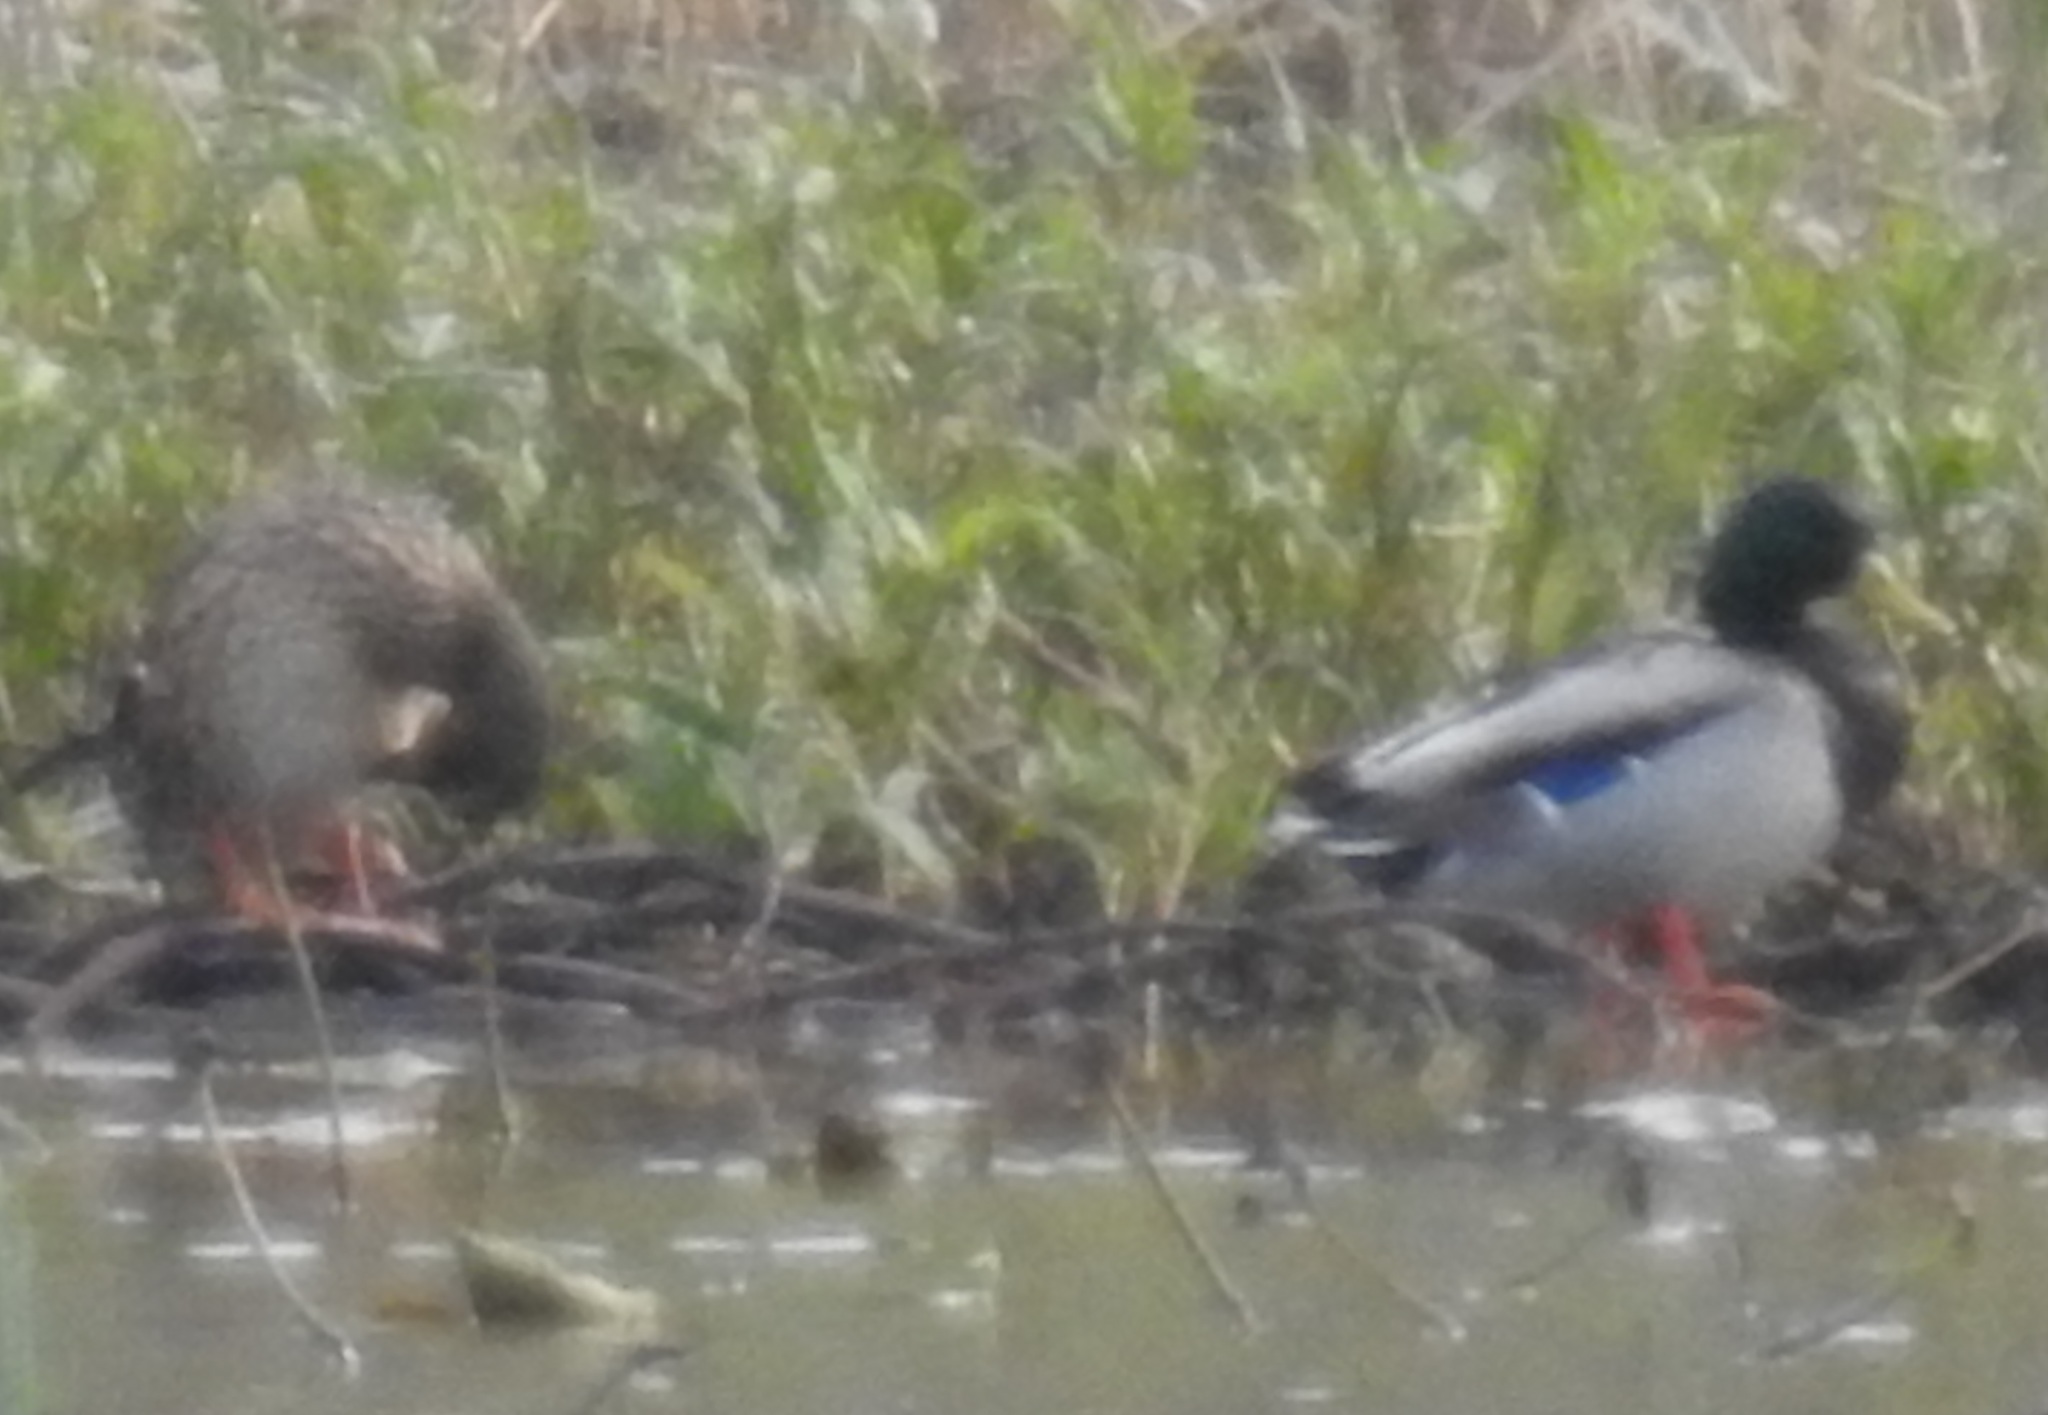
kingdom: Animalia
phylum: Chordata
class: Aves
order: Anseriformes
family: Anatidae
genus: Anas
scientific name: Anas platyrhynchos
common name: Mallard
